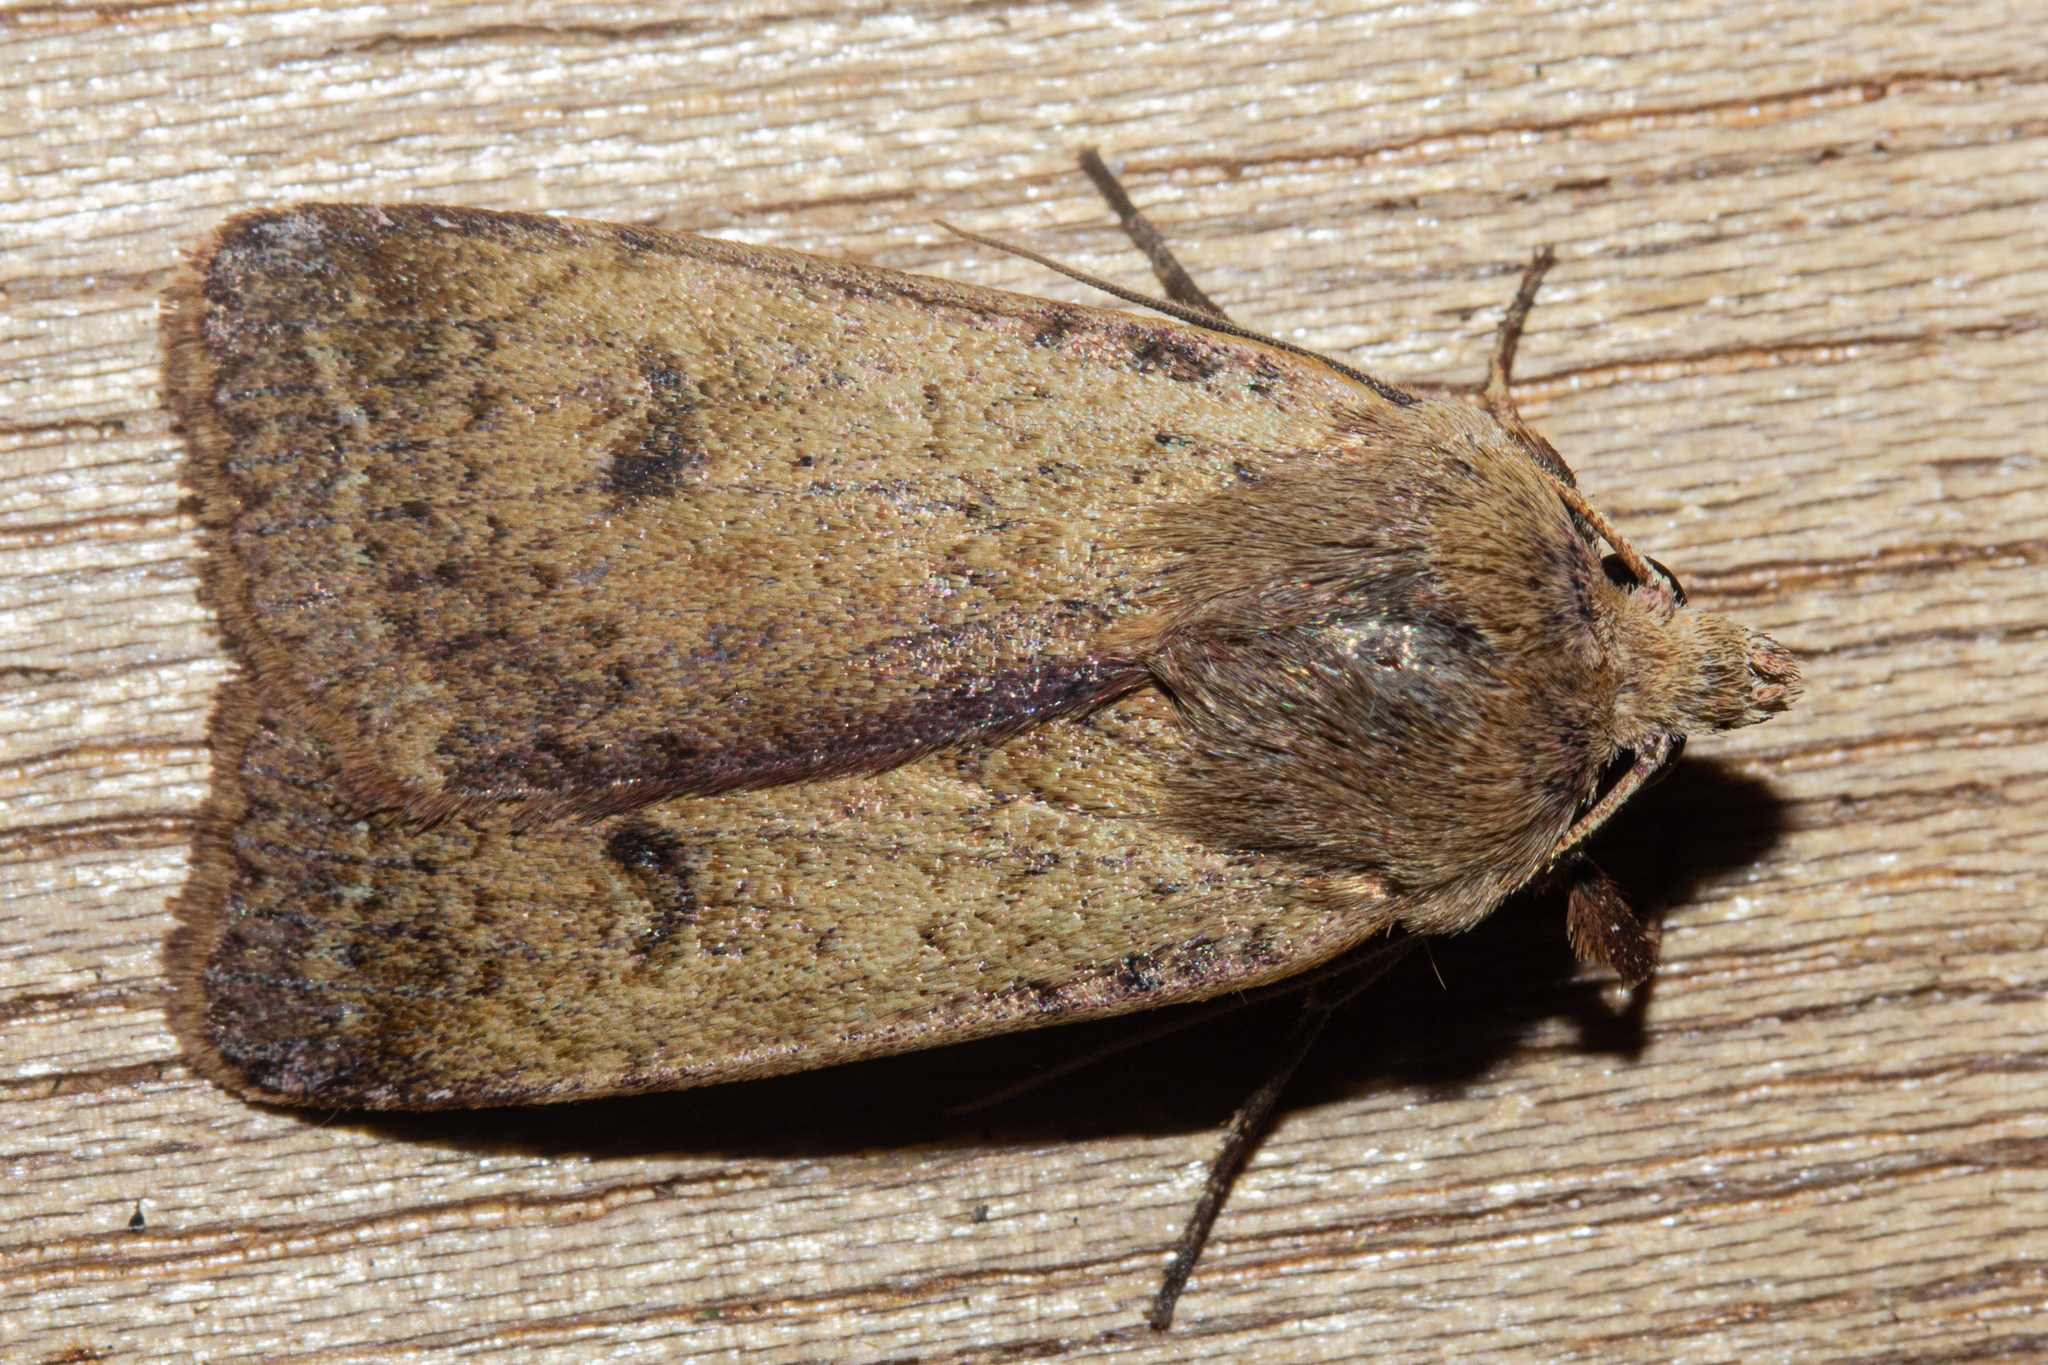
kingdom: Animalia
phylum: Arthropoda
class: Insecta
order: Lepidoptera
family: Noctuidae
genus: Diarsia
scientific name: Diarsia intermixta
